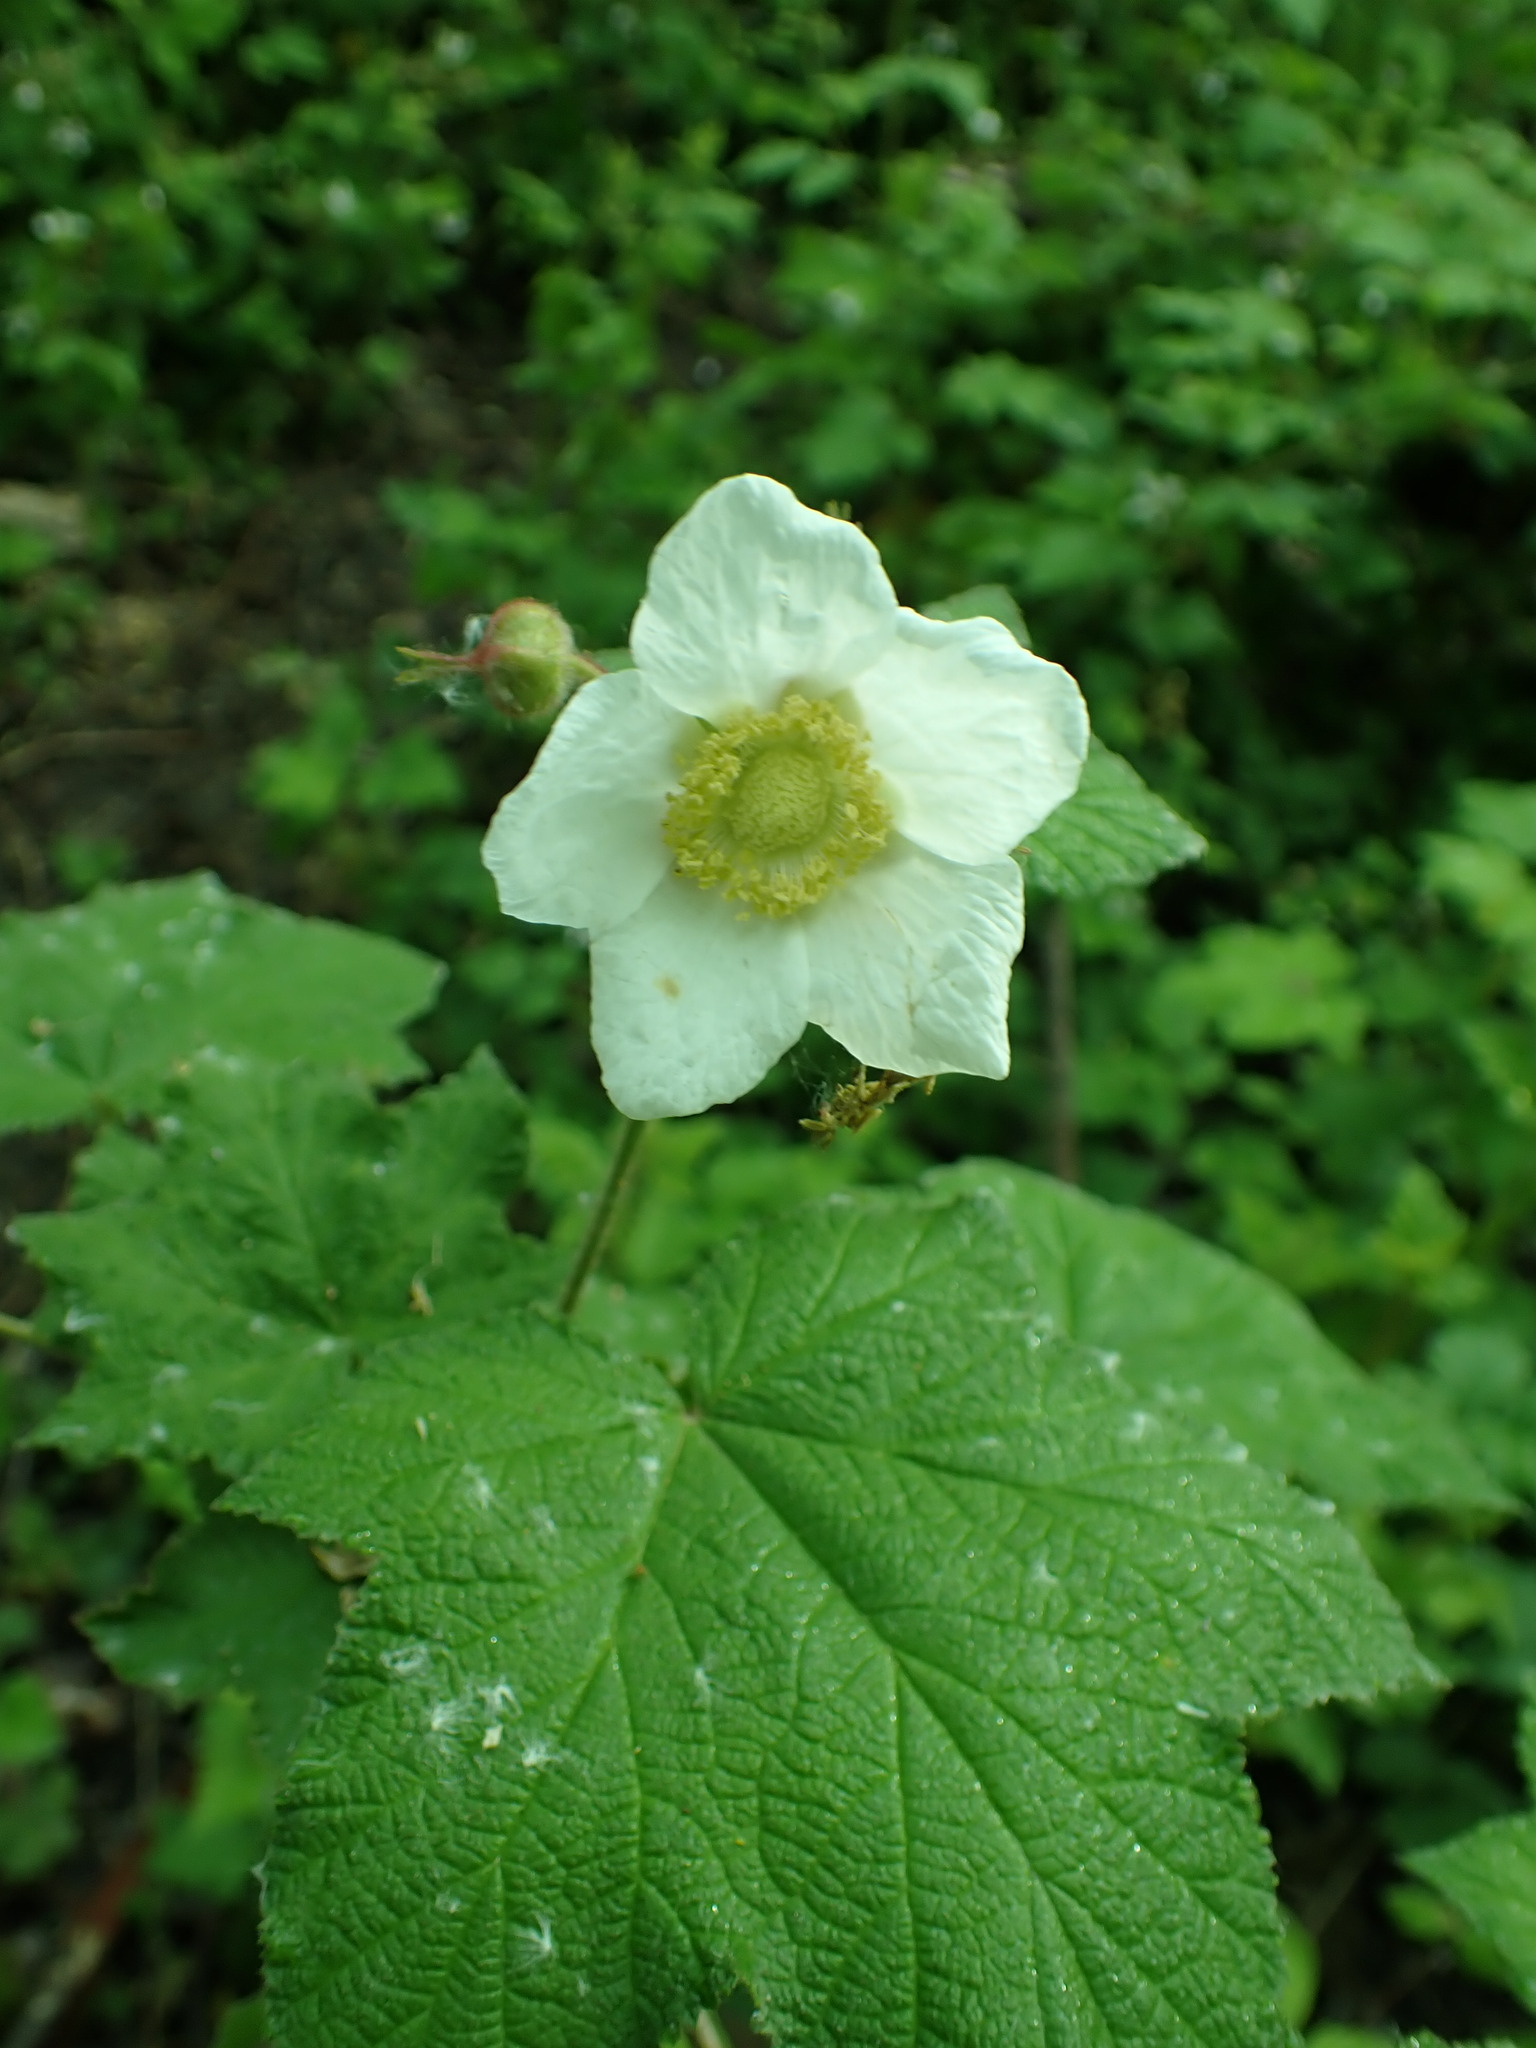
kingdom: Plantae
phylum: Tracheophyta
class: Magnoliopsida
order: Rosales
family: Rosaceae
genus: Rubus
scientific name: Rubus parviflorus
